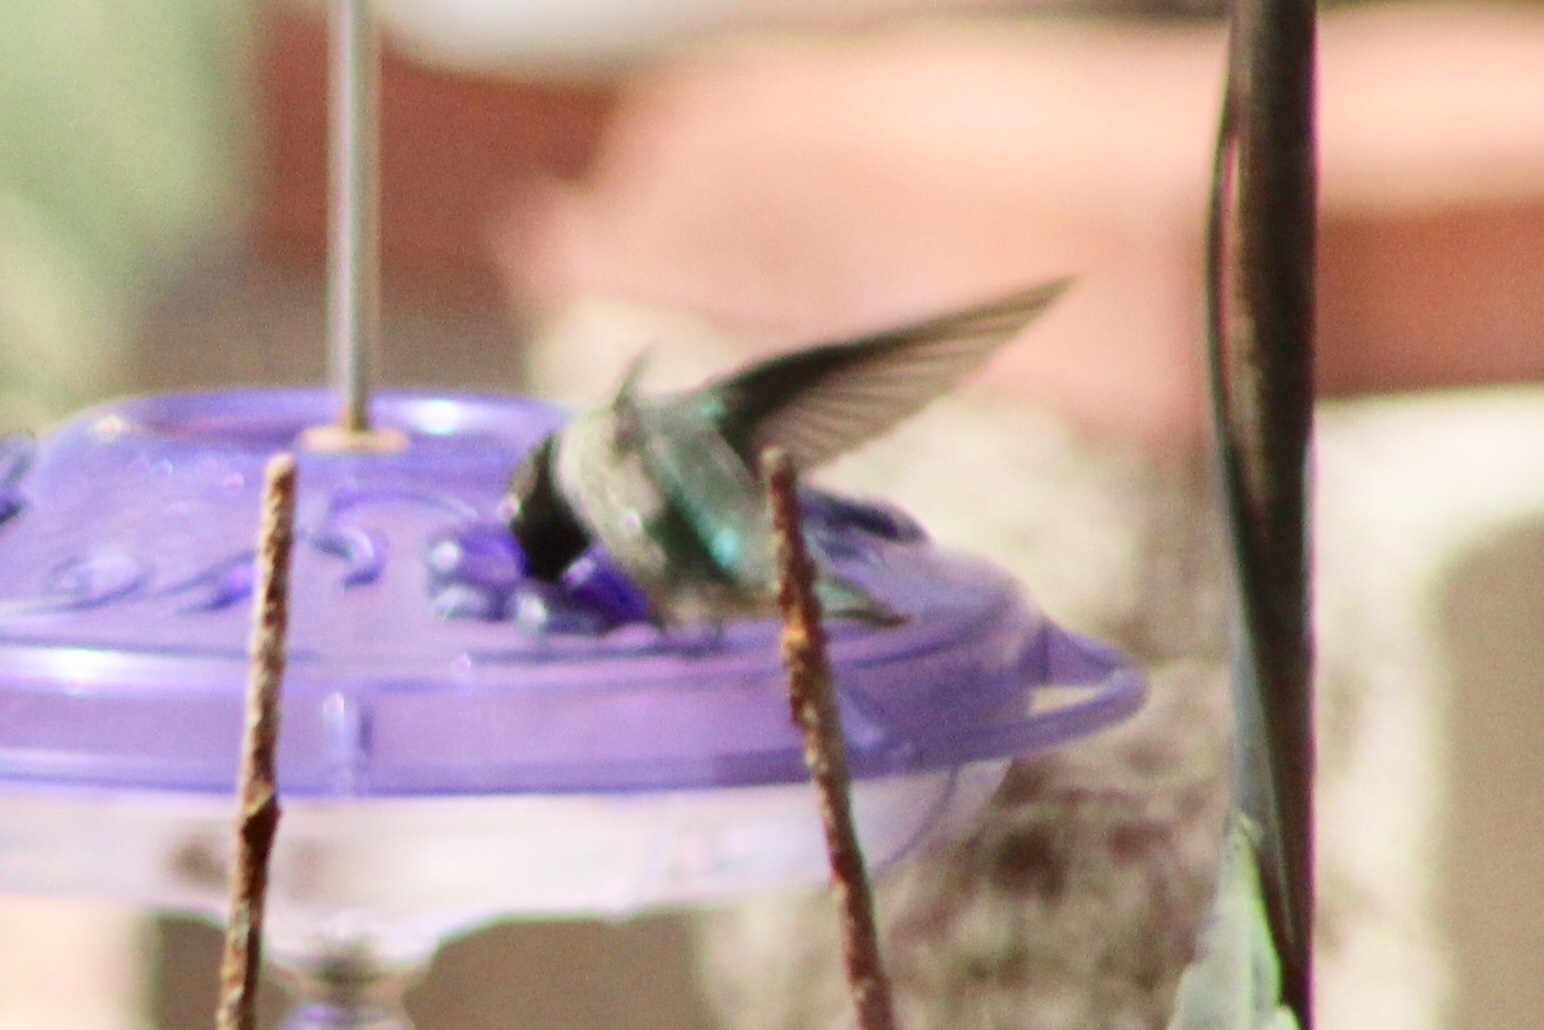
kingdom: Animalia
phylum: Chordata
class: Aves
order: Apodiformes
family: Trochilidae
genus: Calypte
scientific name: Calypte anna
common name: Anna's hummingbird
